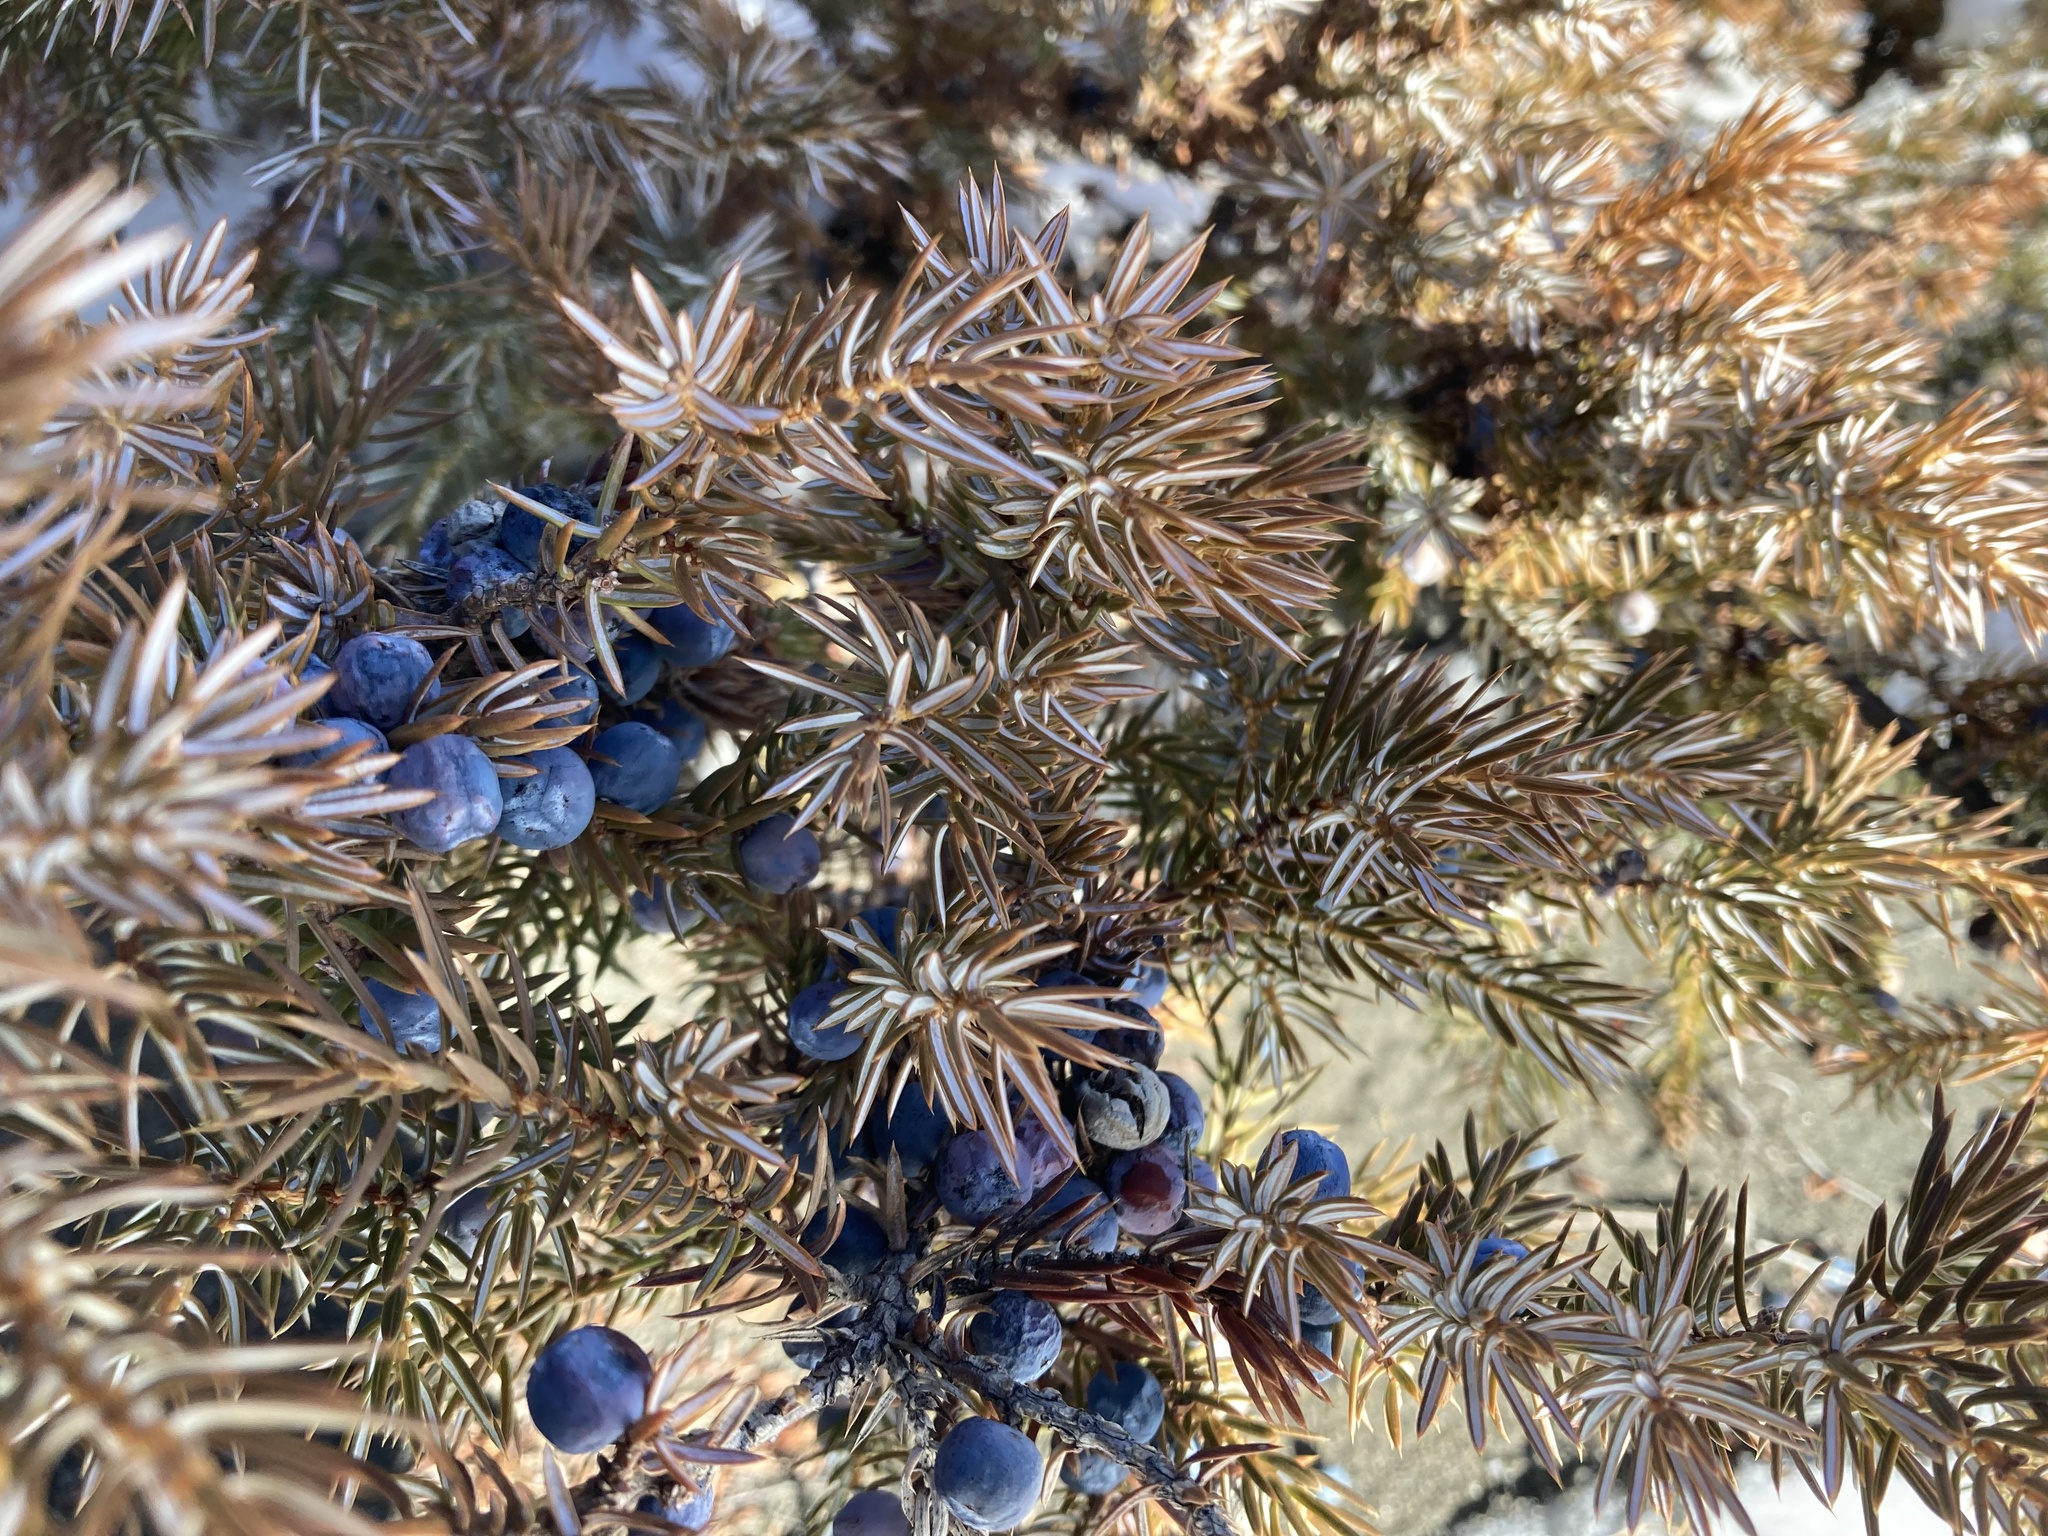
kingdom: Plantae
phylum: Tracheophyta
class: Pinopsida
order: Pinales
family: Cupressaceae
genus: Juniperus
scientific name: Juniperus communis
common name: Common juniper
